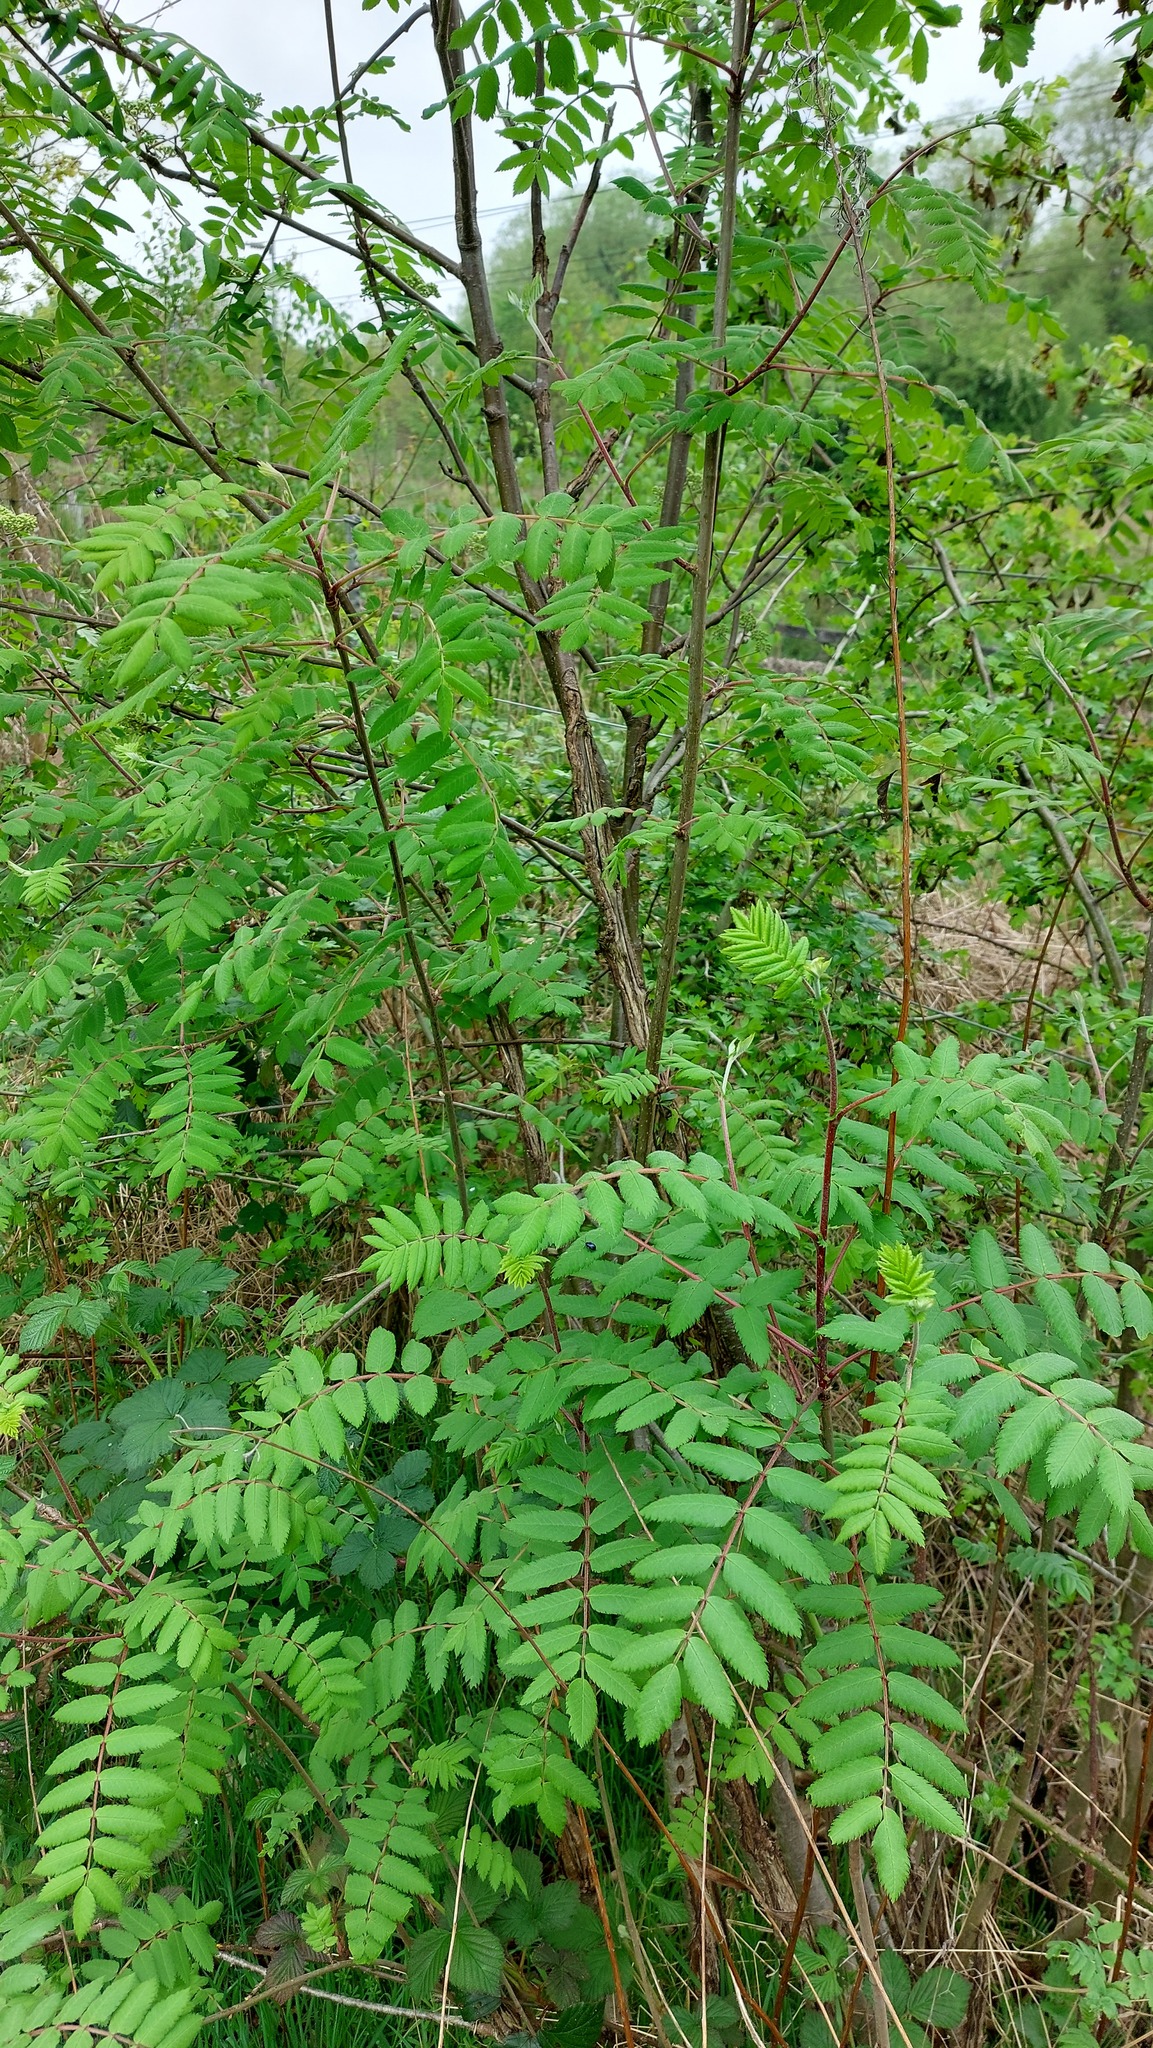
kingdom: Plantae
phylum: Tracheophyta
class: Magnoliopsida
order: Rosales
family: Rosaceae
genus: Sorbus
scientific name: Sorbus aucuparia
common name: Rowan
